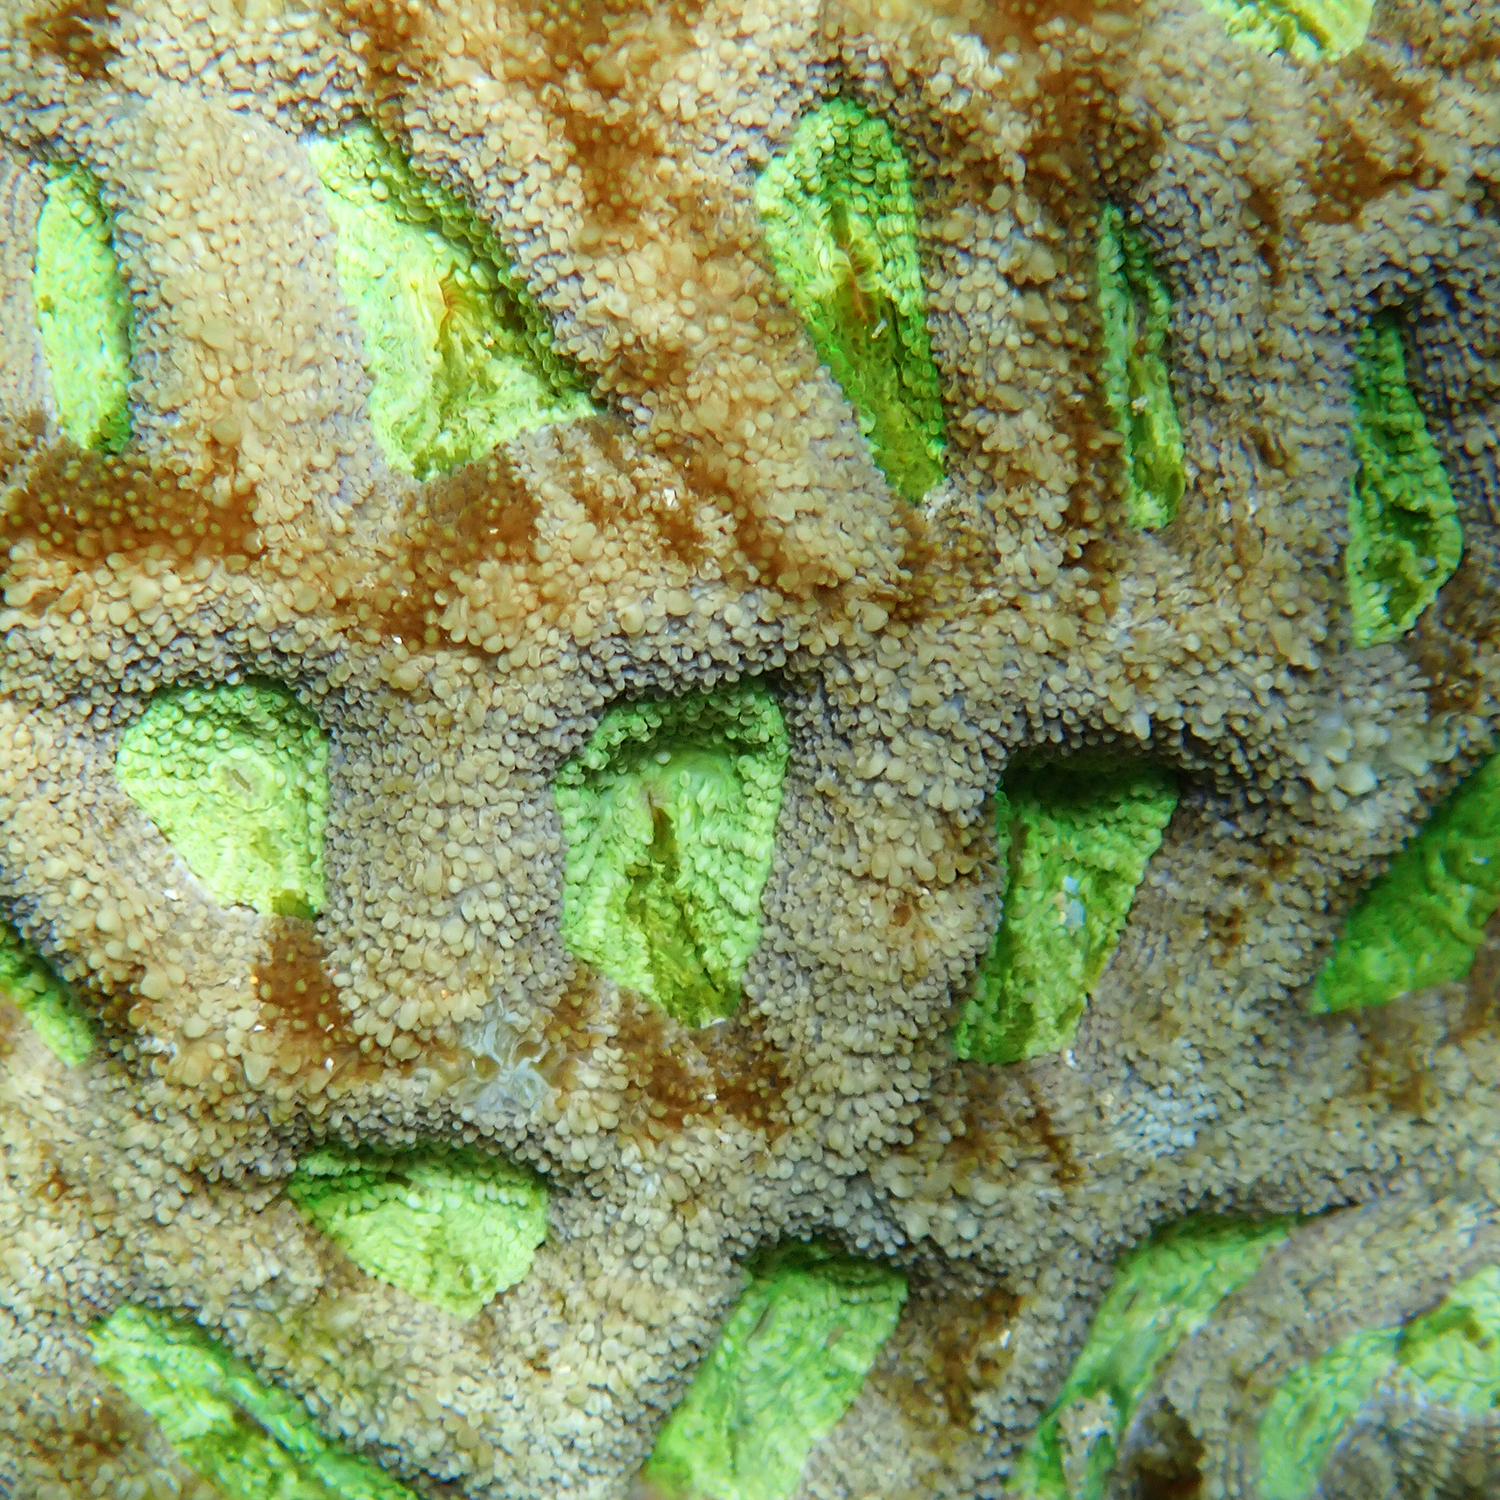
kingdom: Animalia
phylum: Cnidaria
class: Anthozoa
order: Scleractinia
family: Lobophylliidae
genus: Homophyllia
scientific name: Homophyllia bowerbanki
